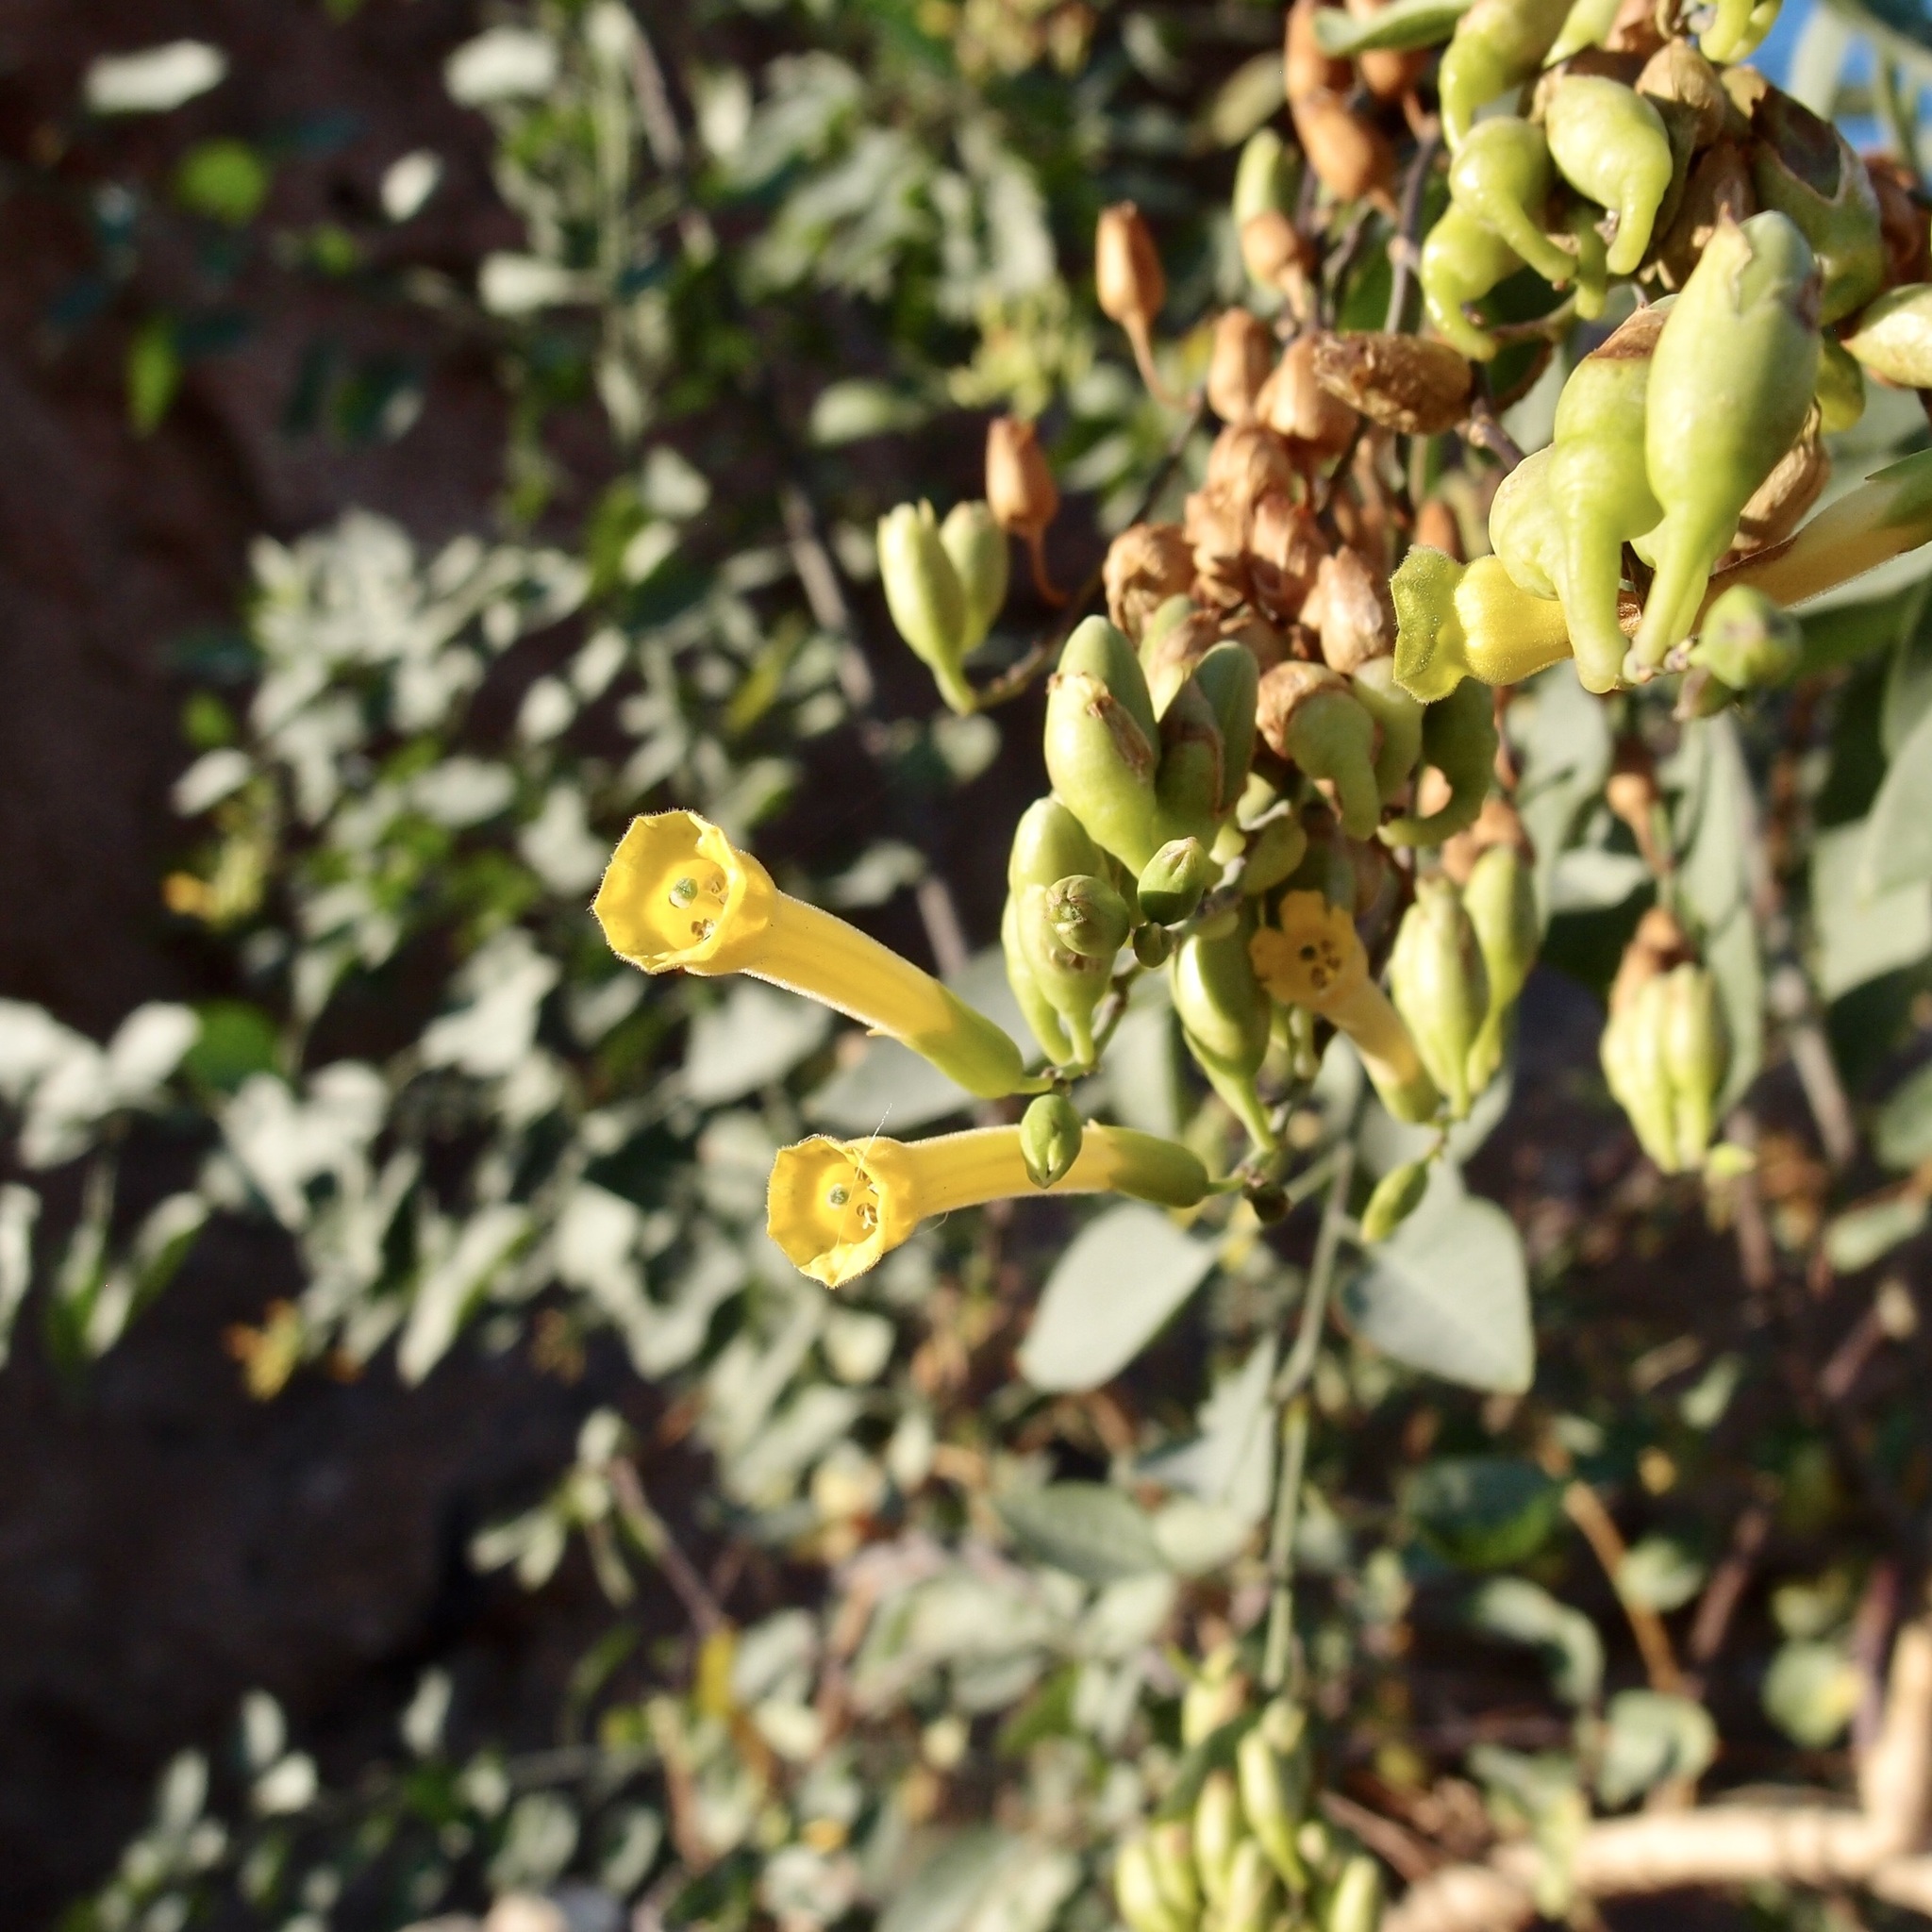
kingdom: Plantae
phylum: Tracheophyta
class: Magnoliopsida
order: Solanales
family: Solanaceae
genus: Nicotiana
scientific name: Nicotiana glauca
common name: Tree tobacco
